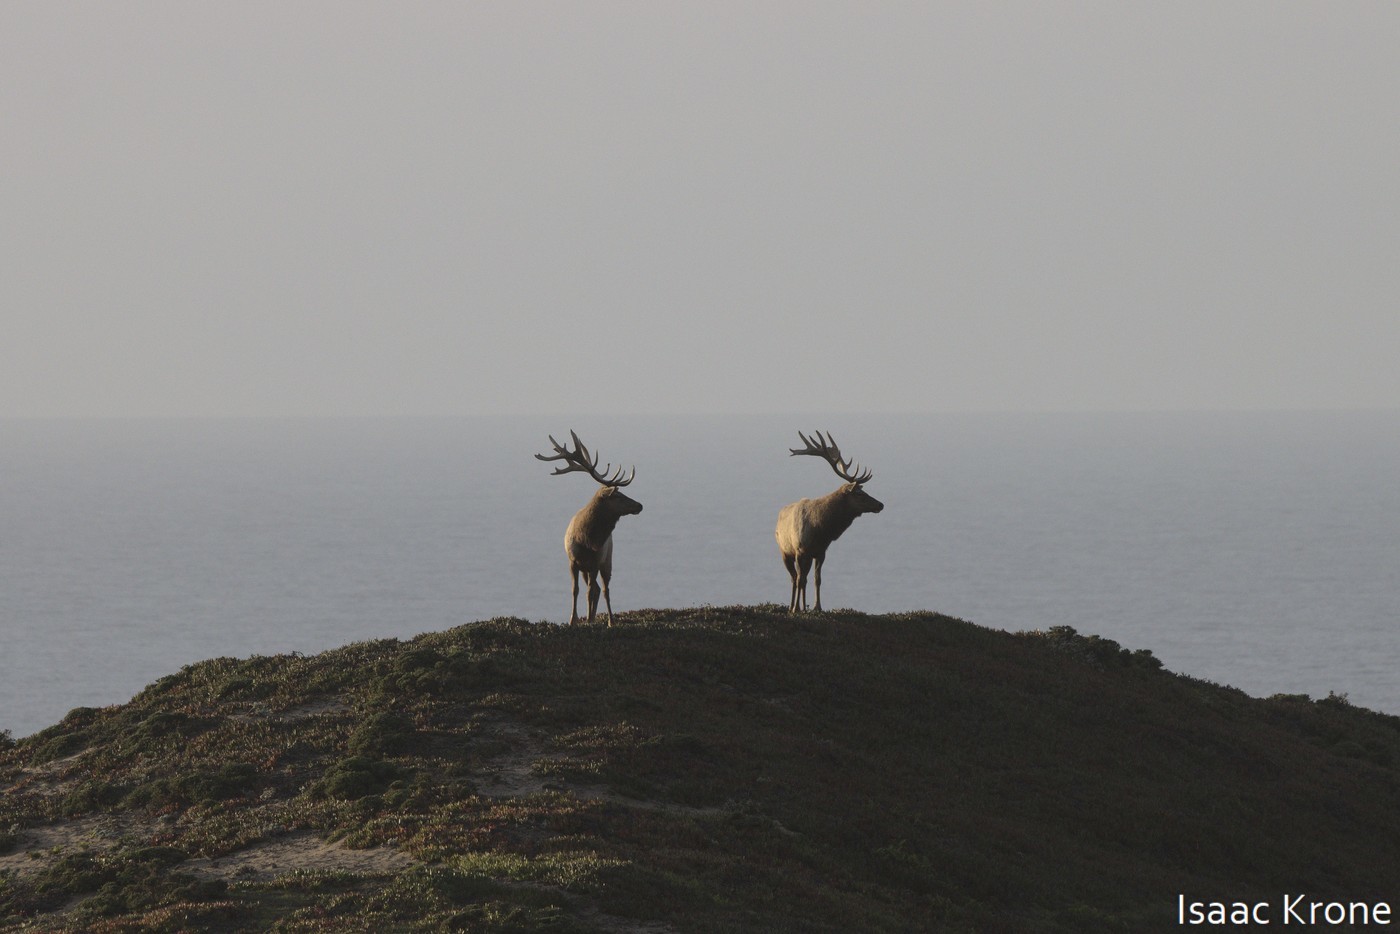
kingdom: Animalia
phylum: Chordata
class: Mammalia
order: Artiodactyla
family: Cervidae
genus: Cervus
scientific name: Cervus elaphus
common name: Red deer
